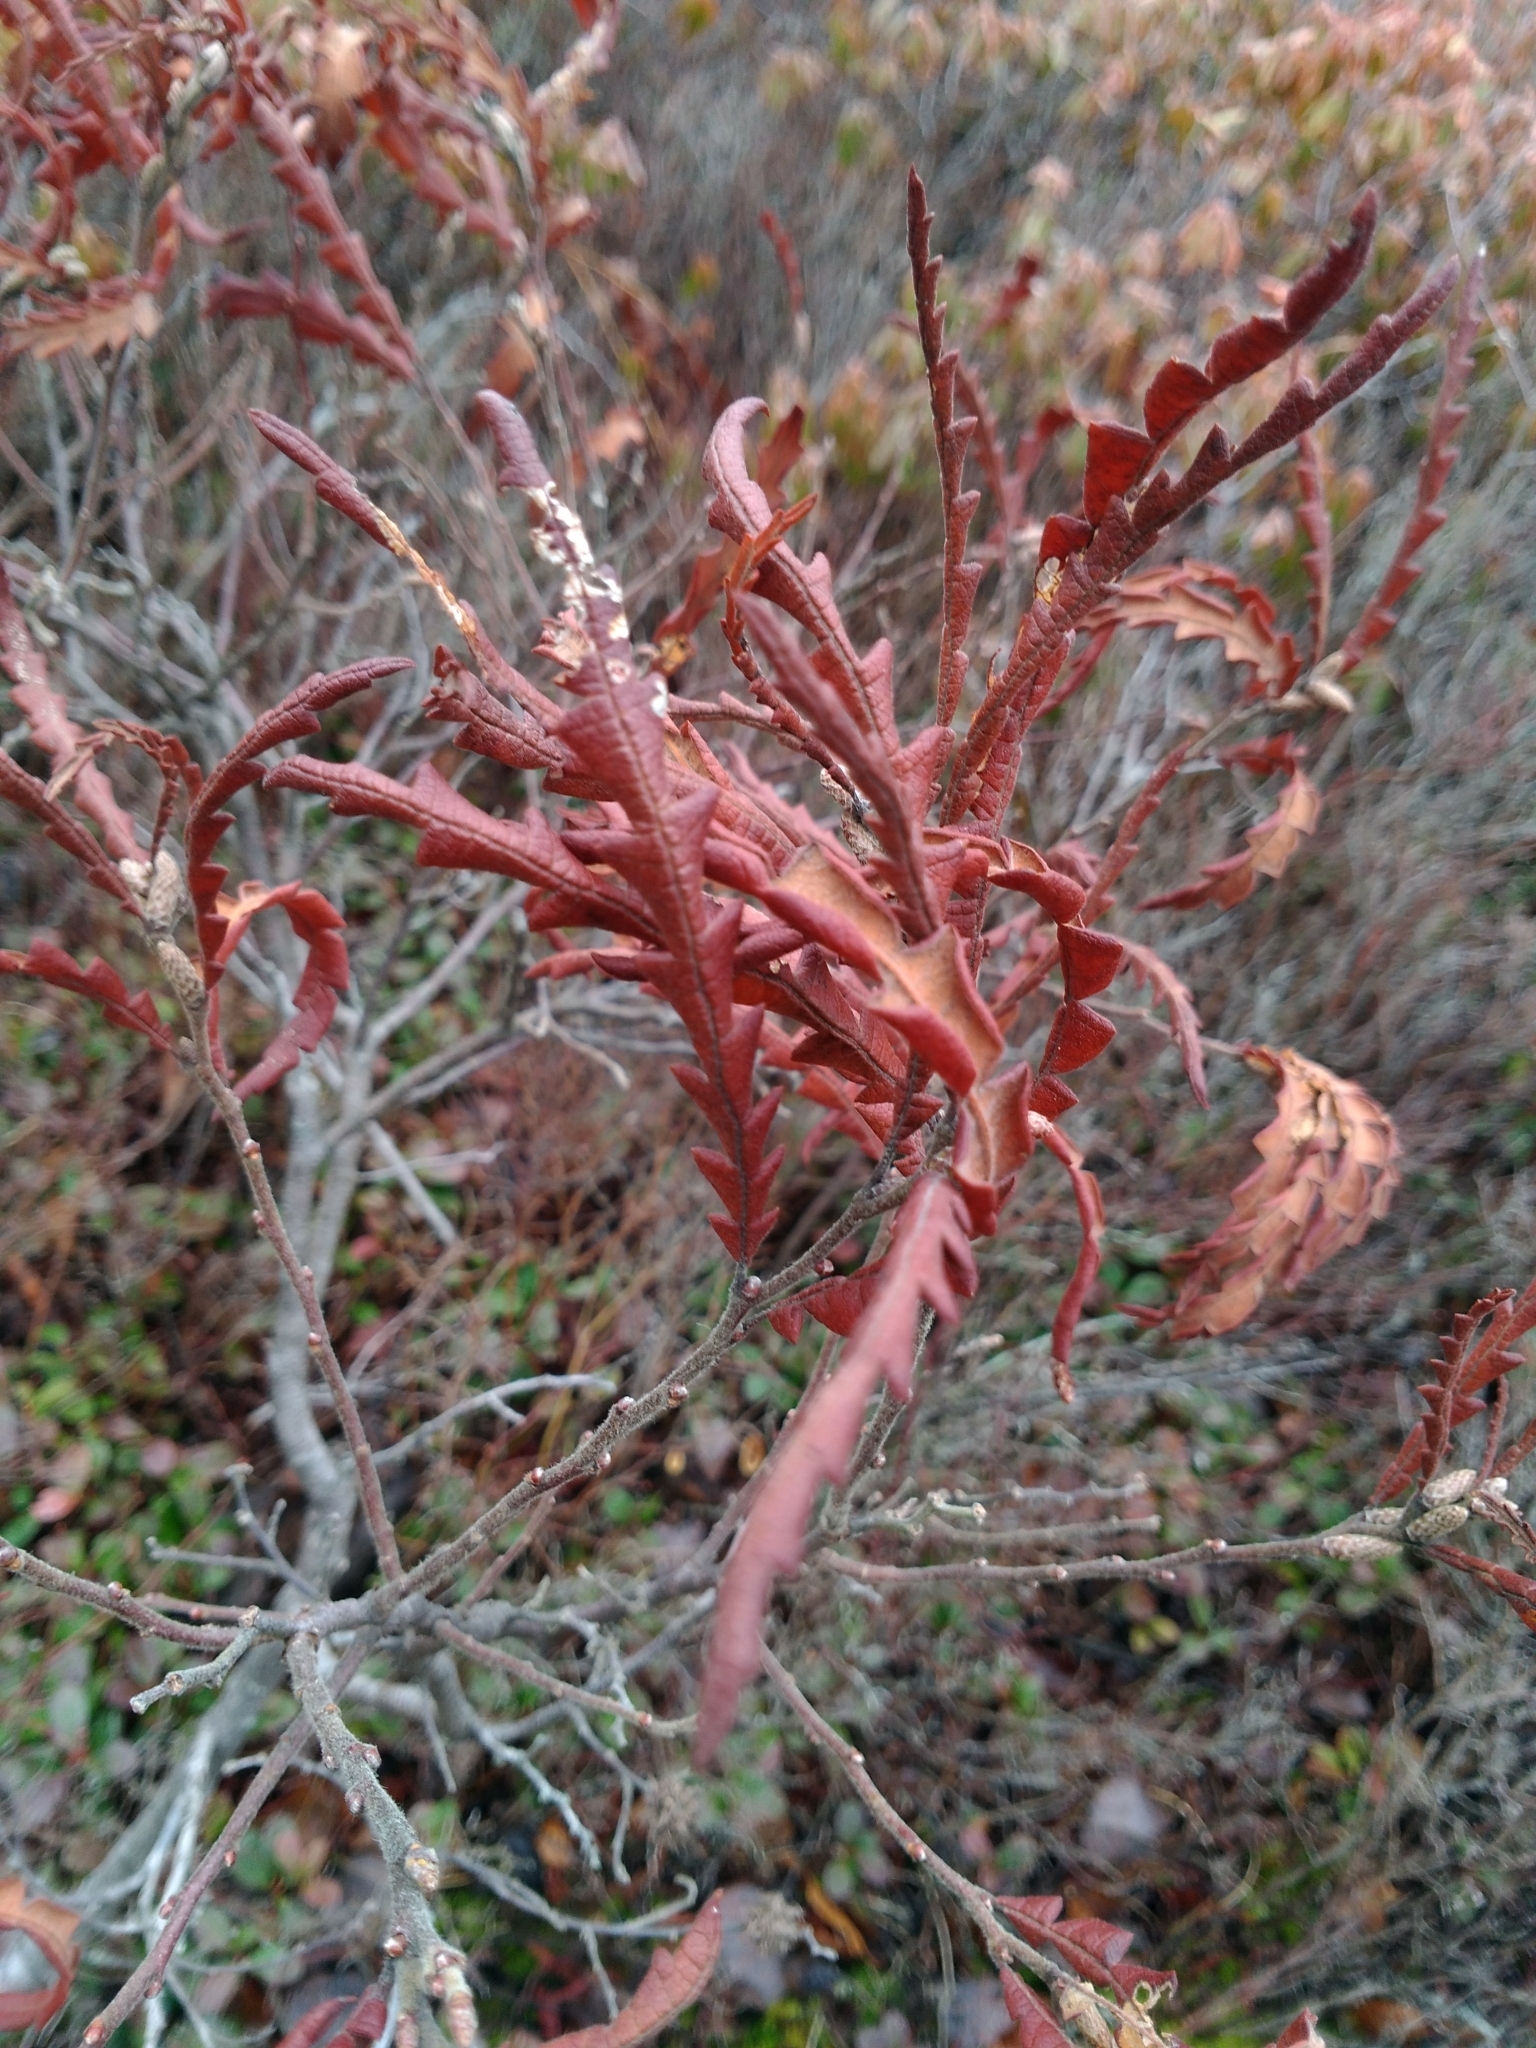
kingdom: Plantae
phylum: Tracheophyta
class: Magnoliopsida
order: Fagales
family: Myricaceae
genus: Comptonia
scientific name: Comptonia peregrina
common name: Sweet-fern
